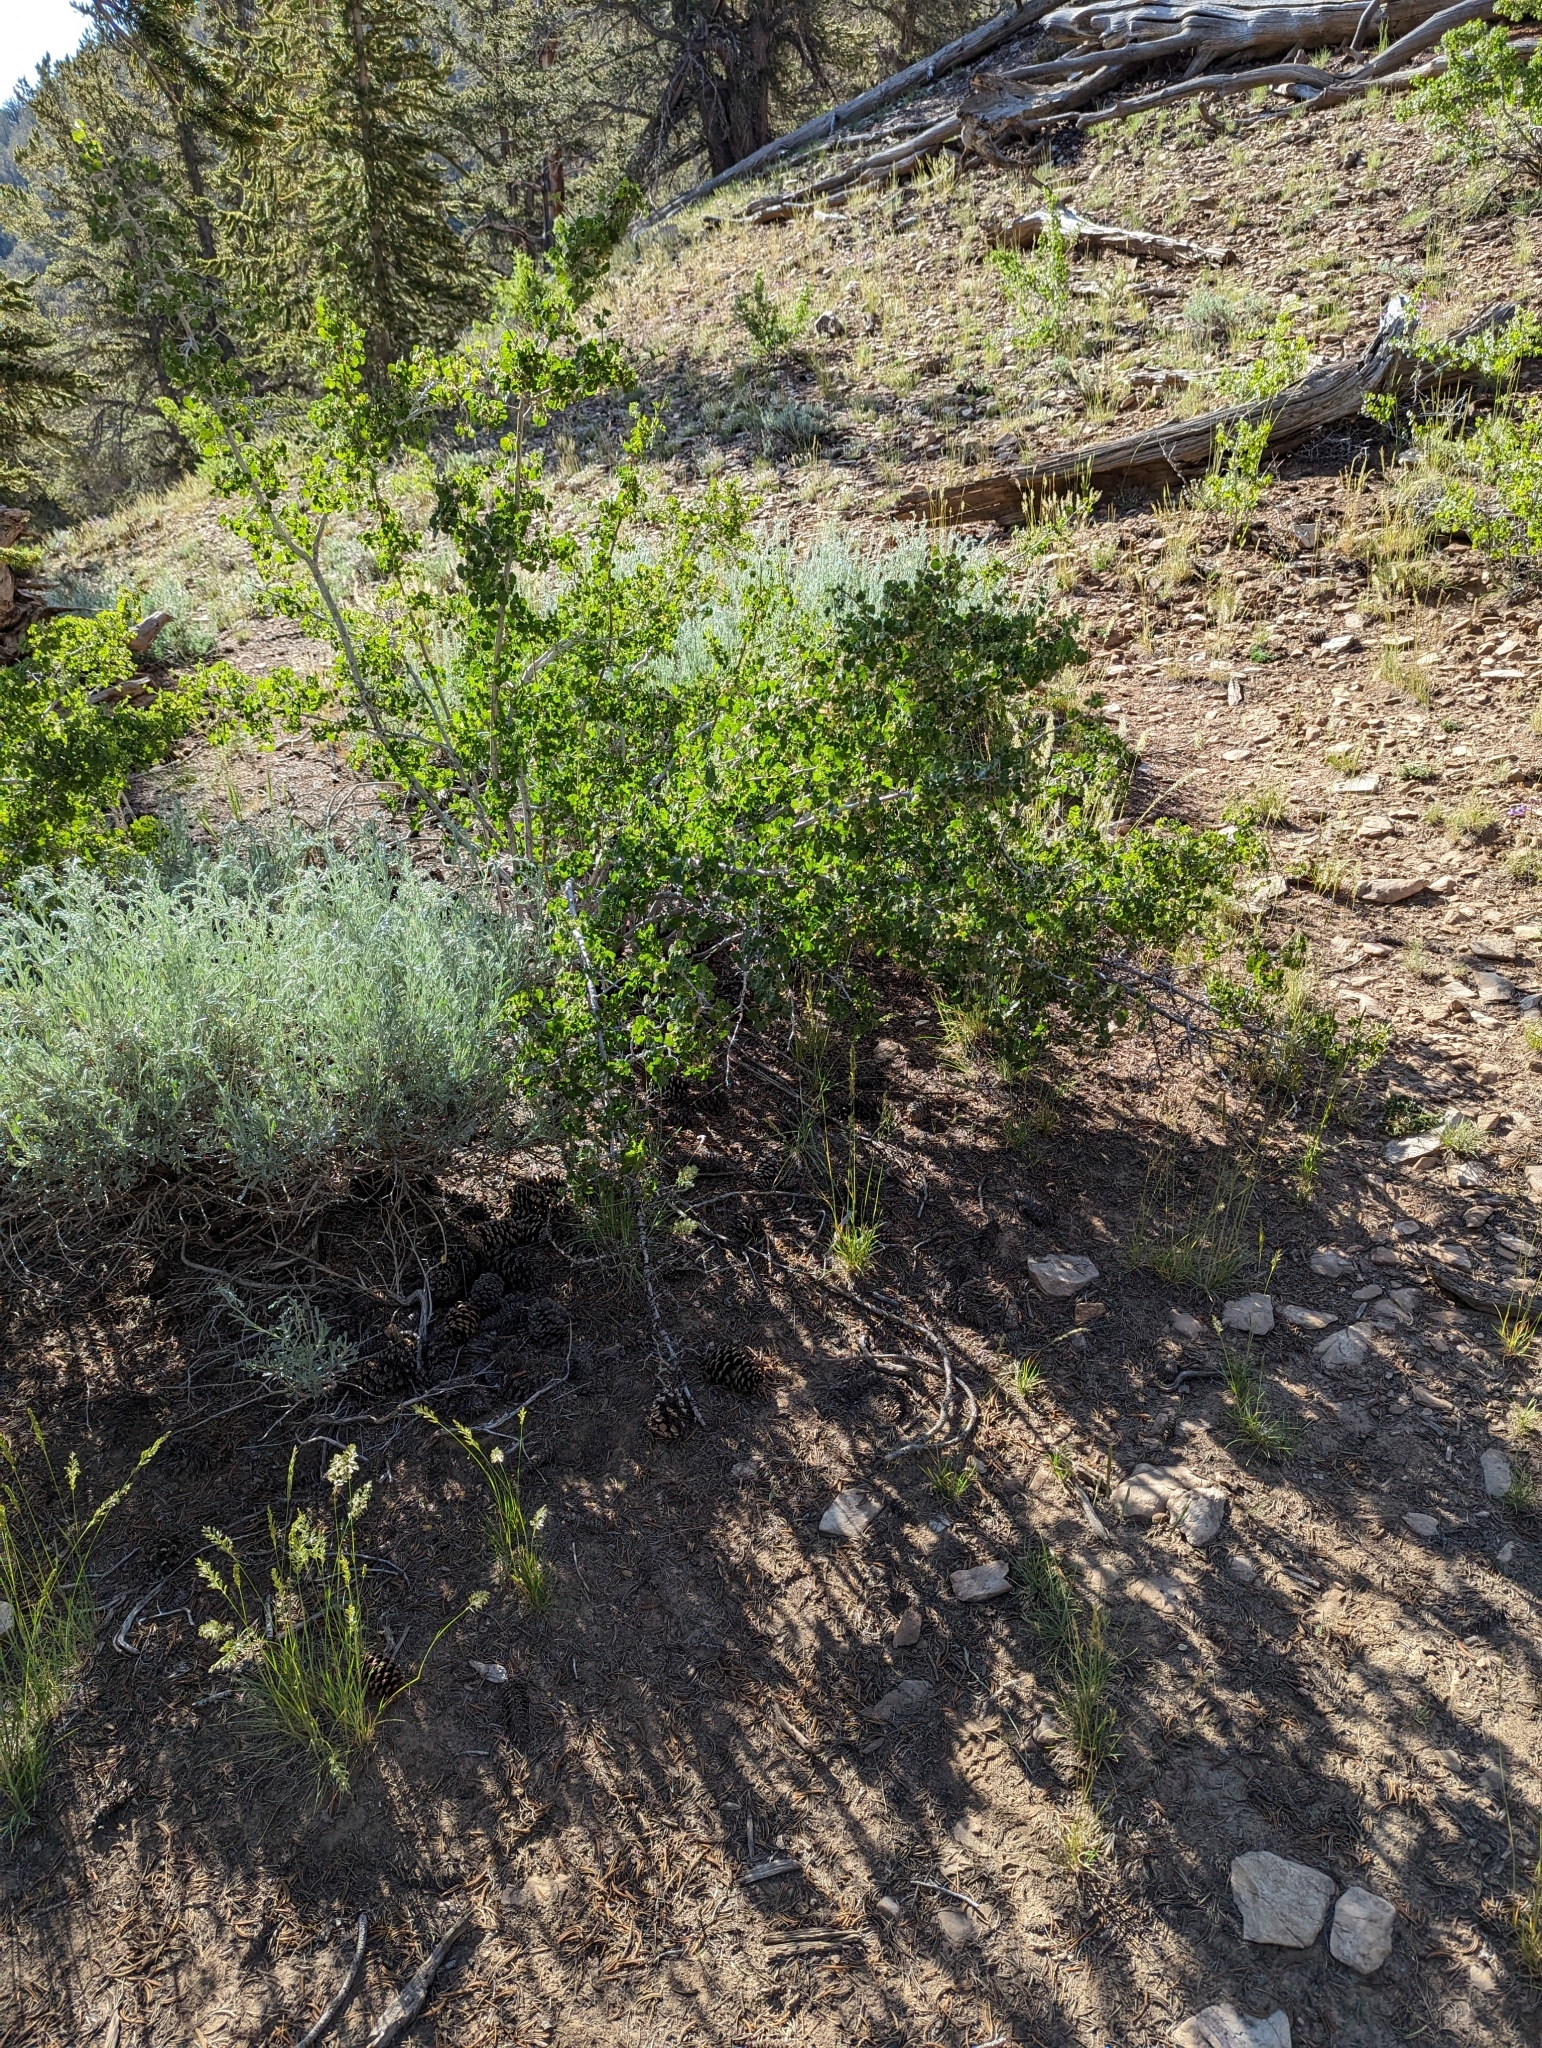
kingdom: Plantae
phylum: Tracheophyta
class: Magnoliopsida
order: Saxifragales
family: Grossulariaceae
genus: Ribes
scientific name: Ribes cereum
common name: Wax currant
